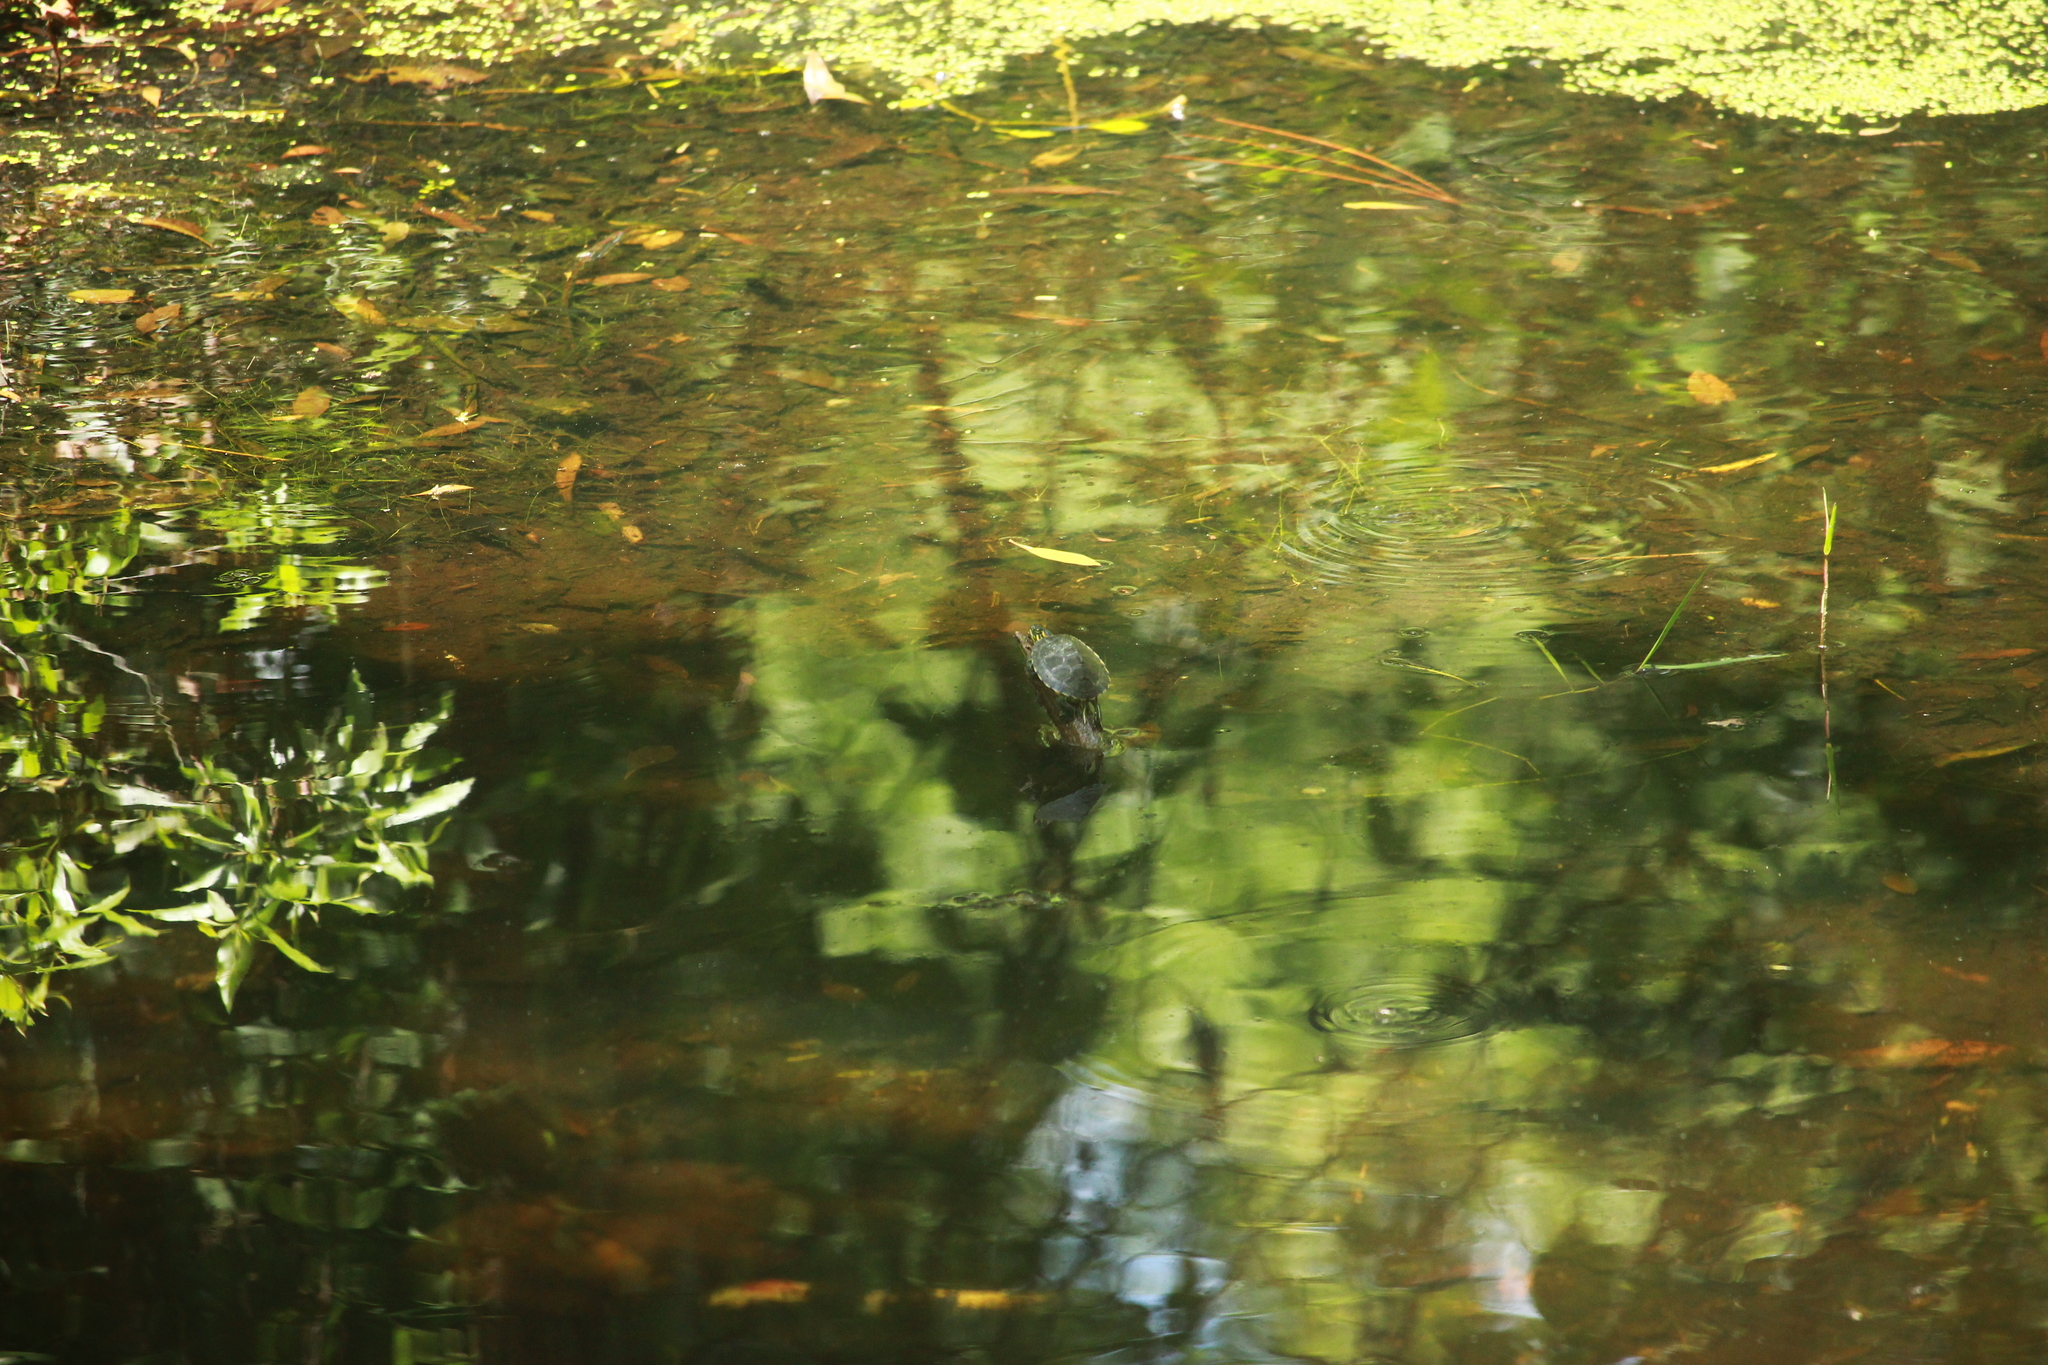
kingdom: Animalia
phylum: Chordata
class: Testudines
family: Emydidae
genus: Trachemys
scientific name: Trachemys scripta
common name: Slider
